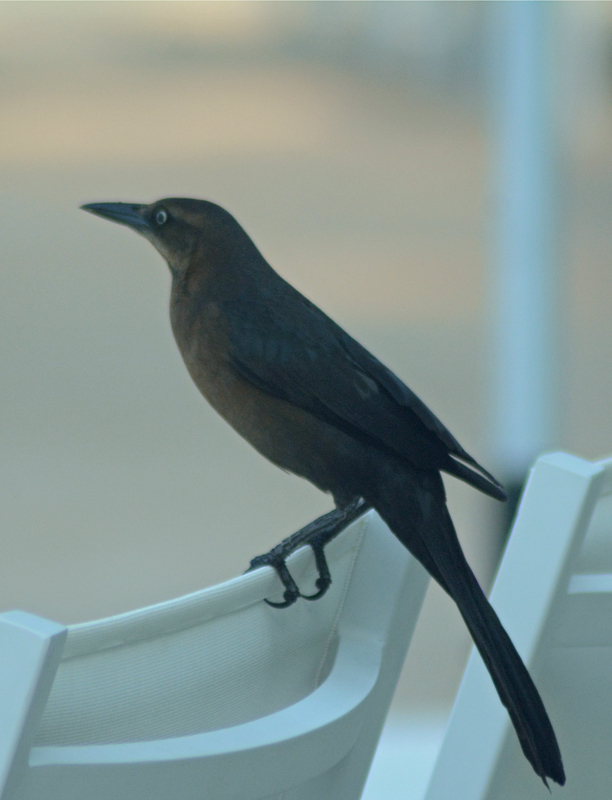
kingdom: Animalia
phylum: Chordata
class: Aves
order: Passeriformes
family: Icteridae
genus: Quiscalus
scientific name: Quiscalus mexicanus
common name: Great-tailed grackle
